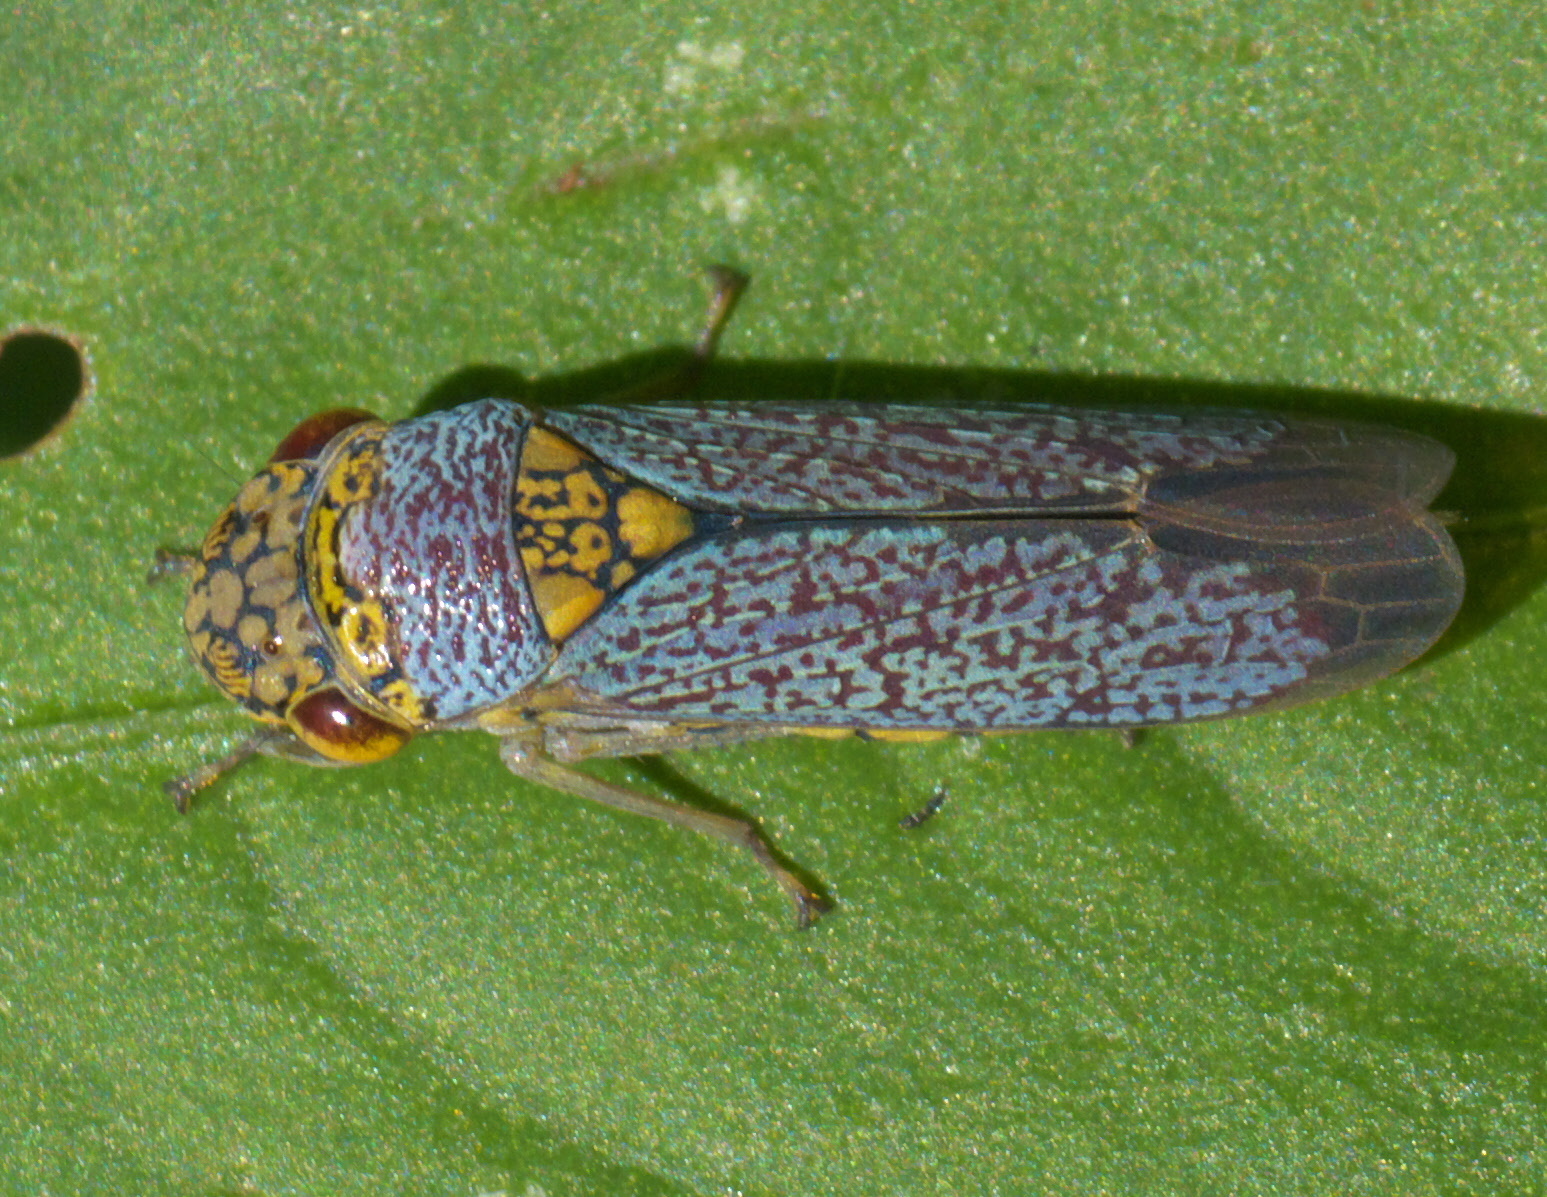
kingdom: Animalia
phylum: Arthropoda
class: Insecta
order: Hemiptera
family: Cicadellidae
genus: Oncometopia
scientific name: Oncometopia orbona
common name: Broad-headed sharpshooter
